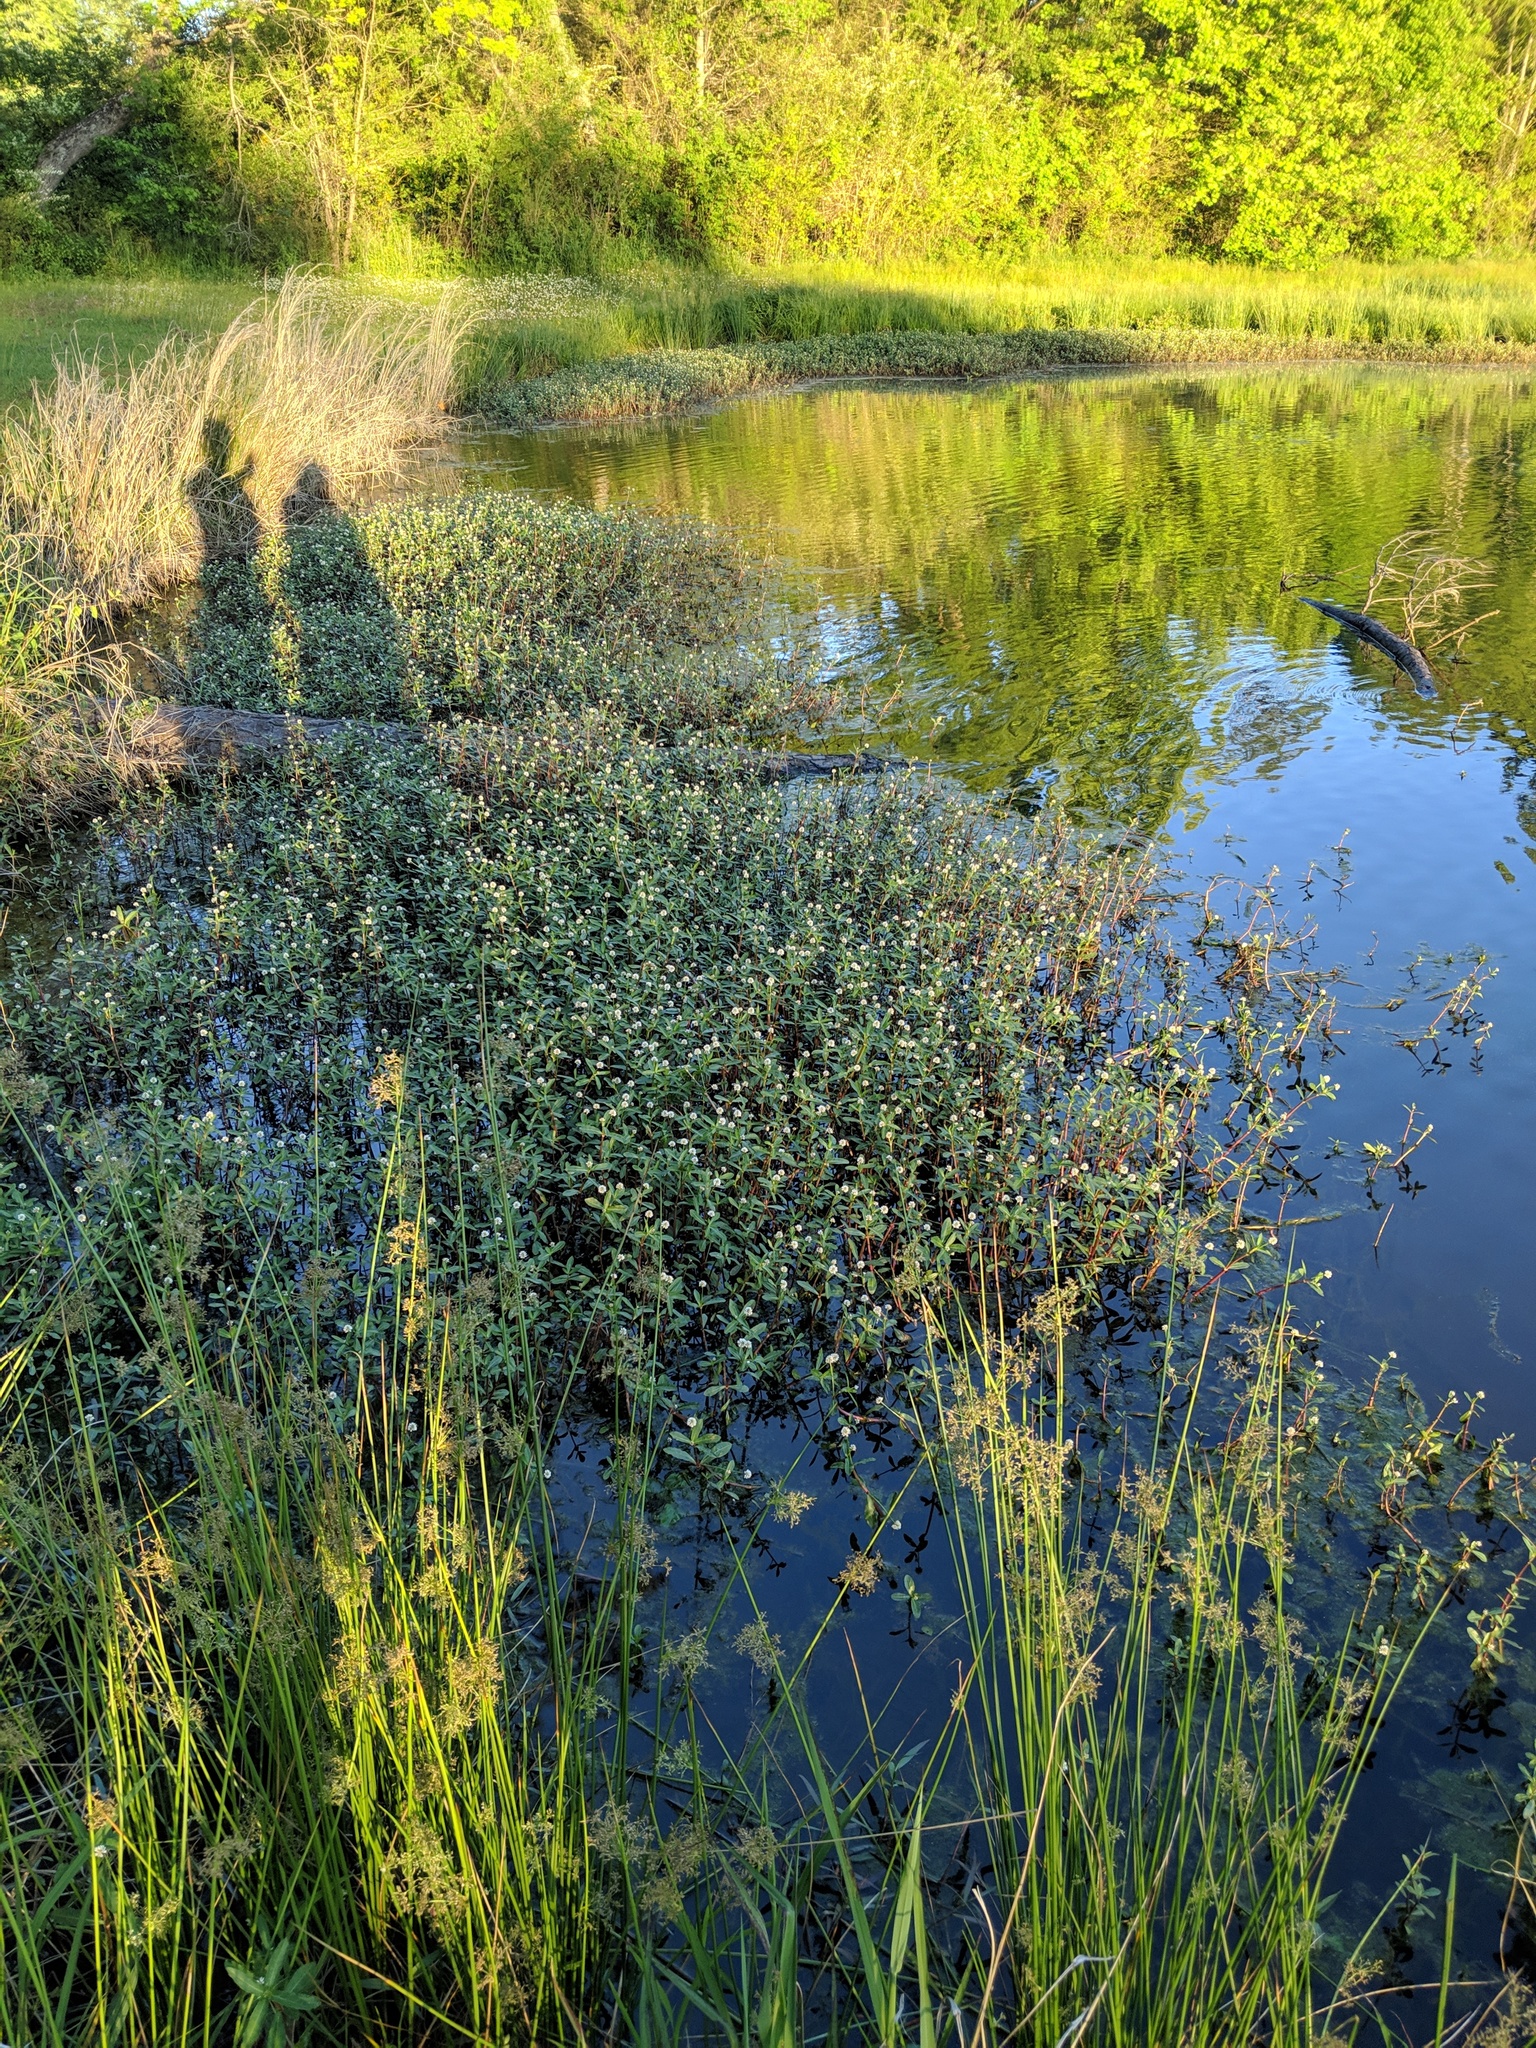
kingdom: Plantae
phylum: Tracheophyta
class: Magnoliopsida
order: Caryophyllales
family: Amaranthaceae
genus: Alternanthera
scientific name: Alternanthera philoxeroides
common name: Alligatorweed
